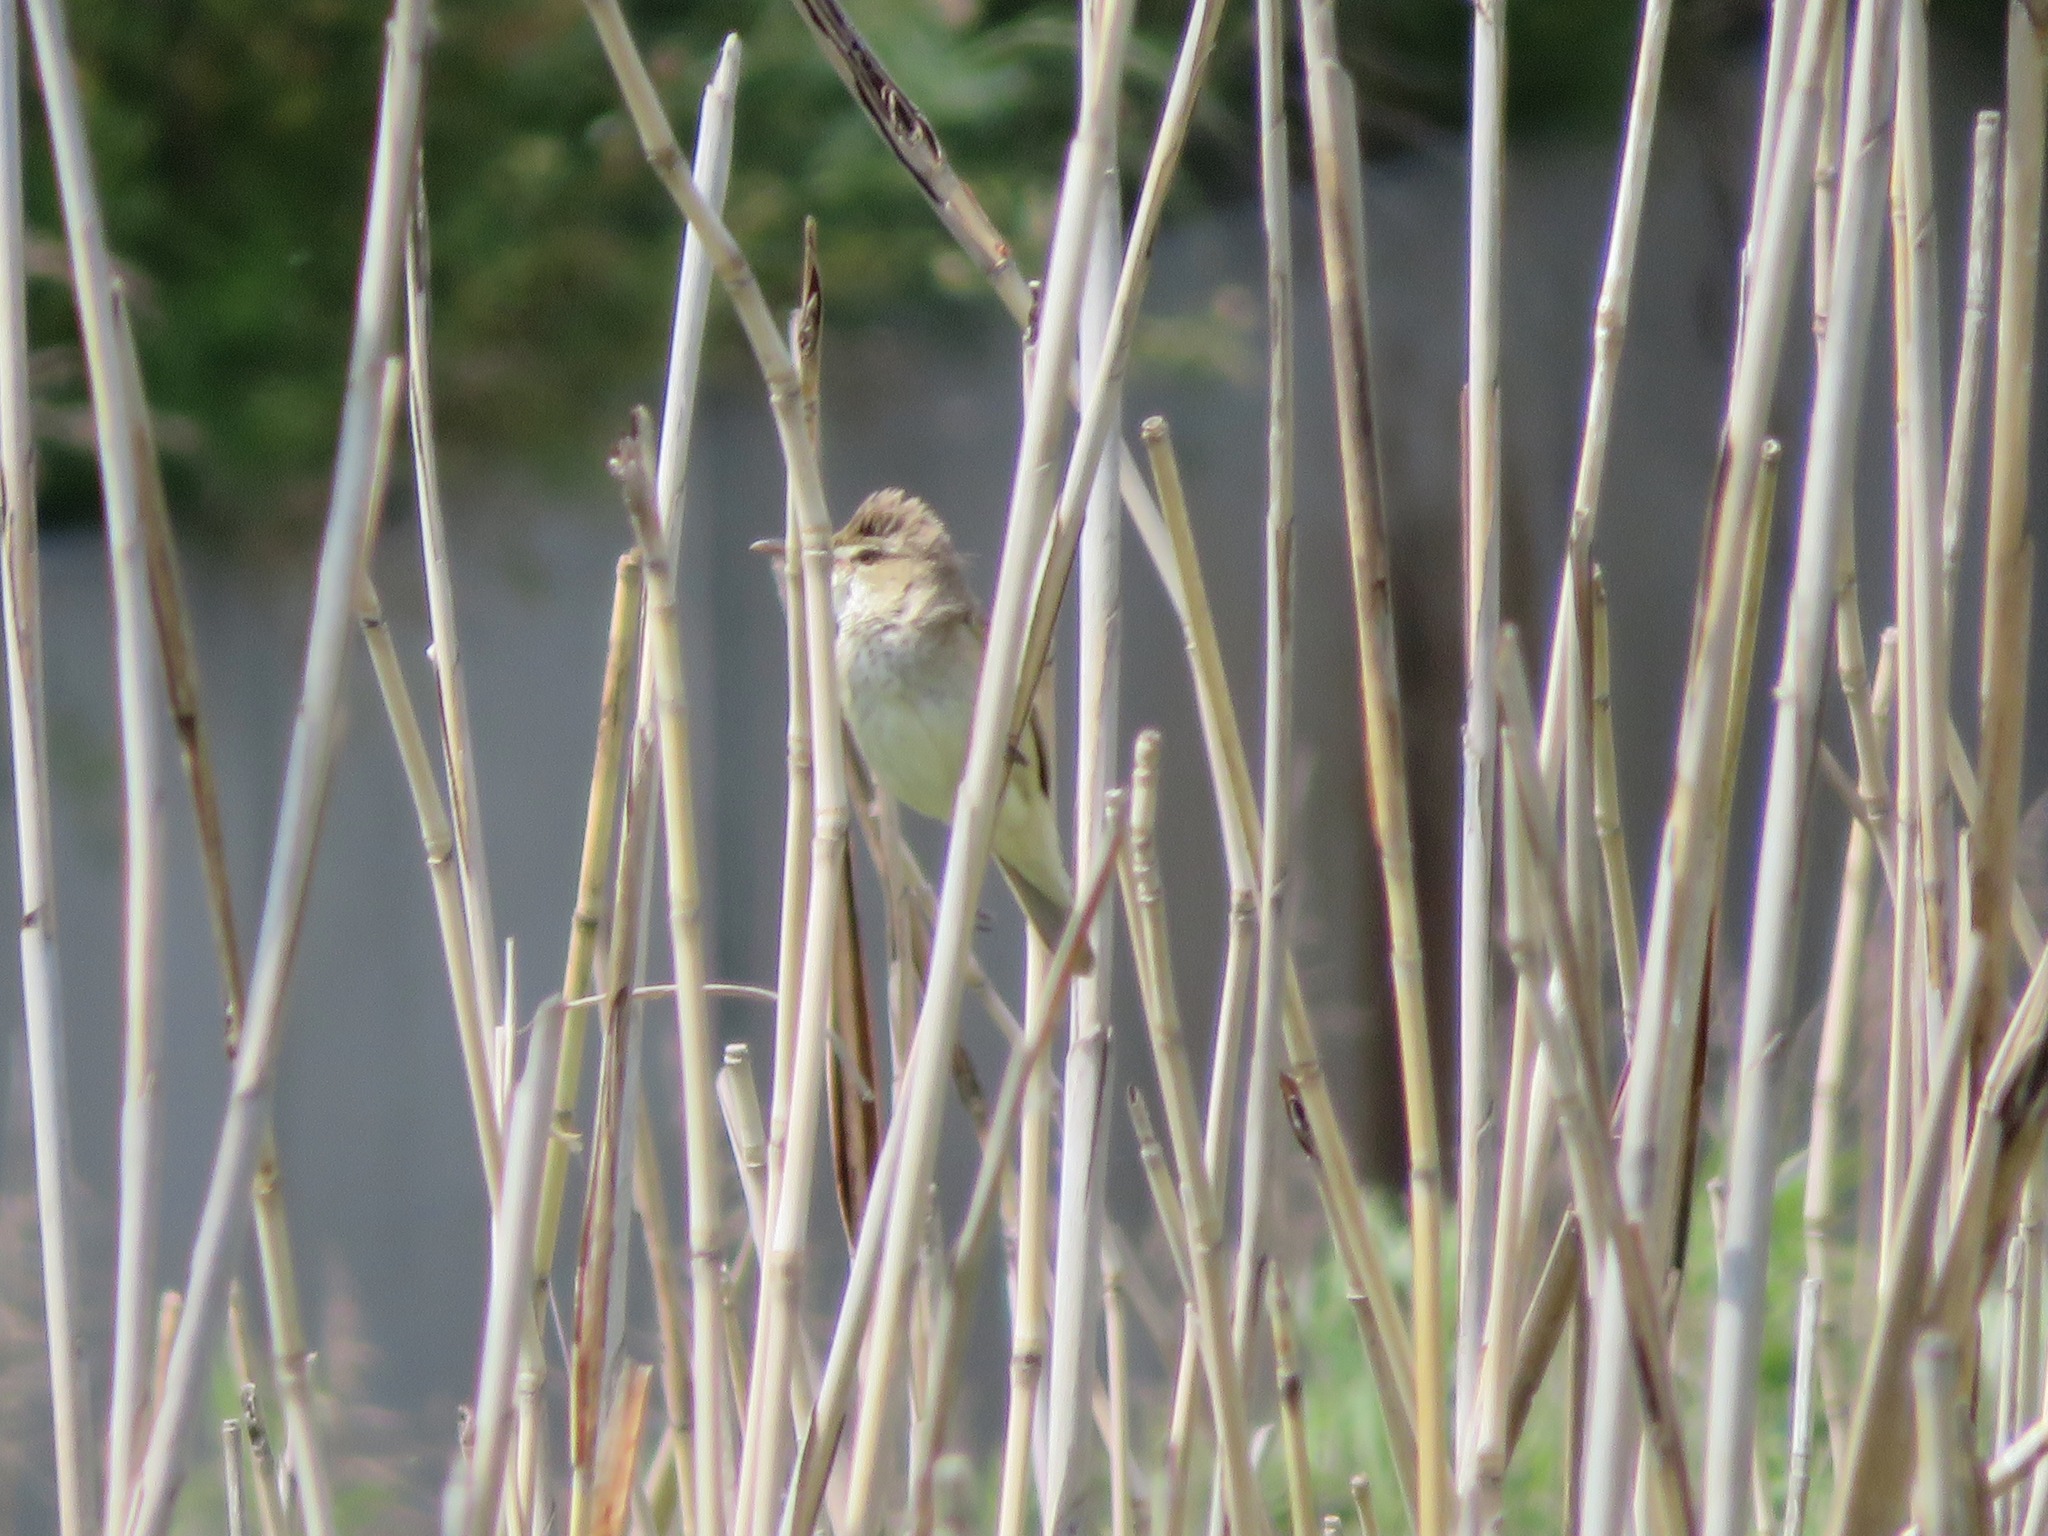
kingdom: Animalia
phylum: Chordata
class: Aves
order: Passeriformes
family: Acrocephalidae
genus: Acrocephalus
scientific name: Acrocephalus orientalis
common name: Oriental reed warbler
